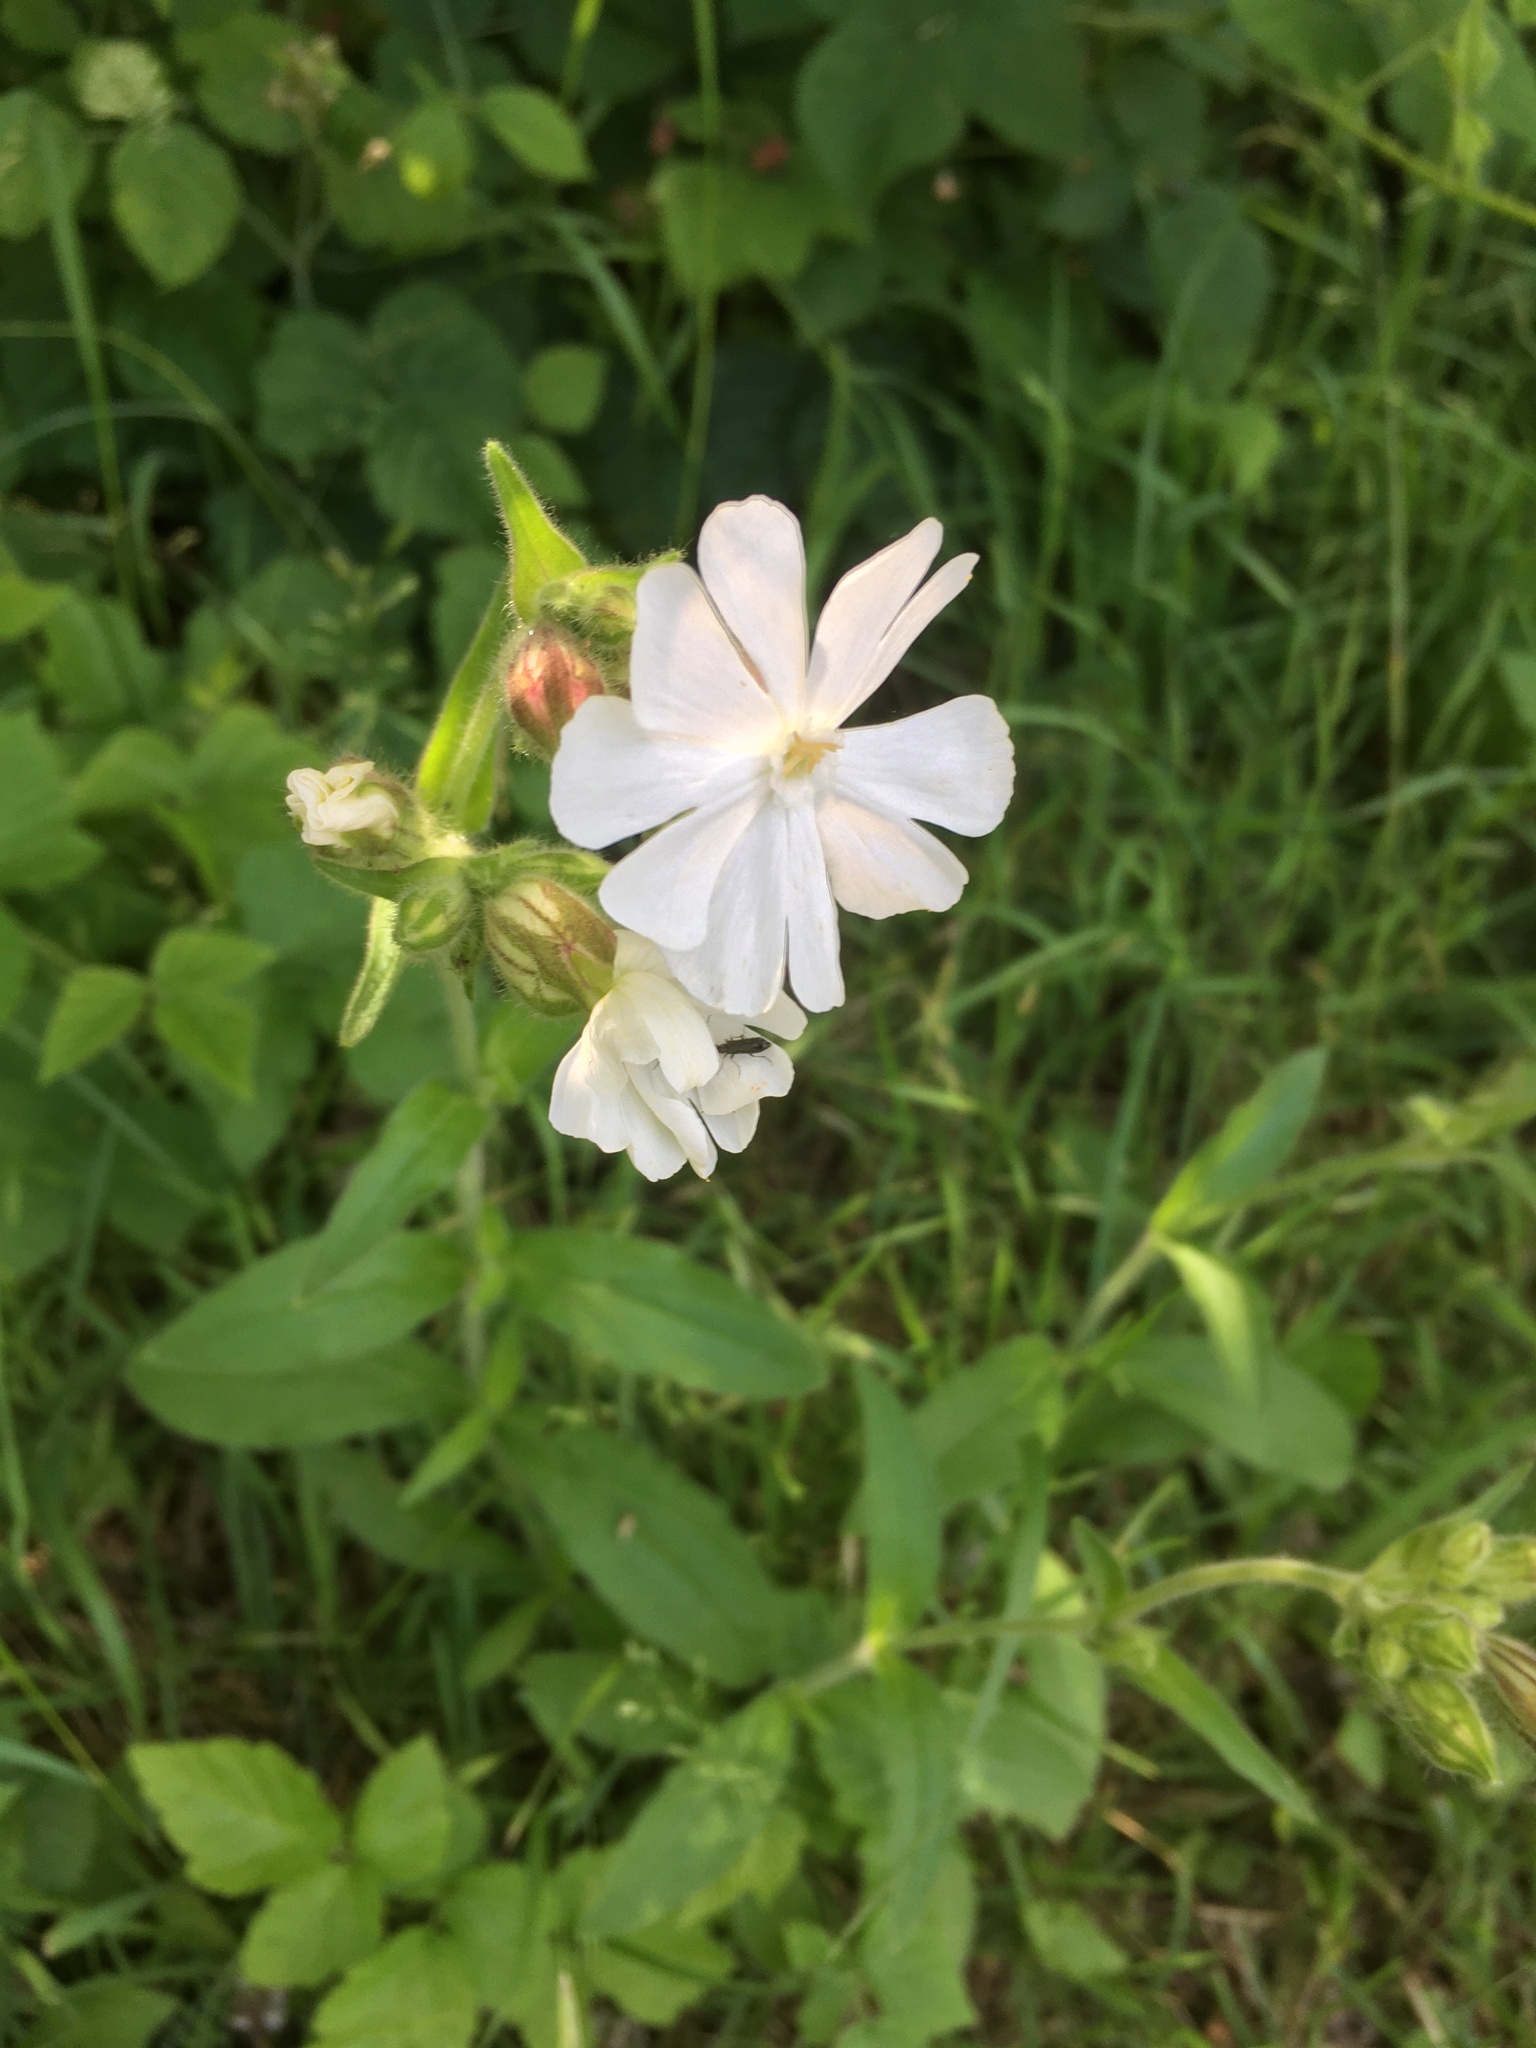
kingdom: Plantae
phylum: Tracheophyta
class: Magnoliopsida
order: Caryophyllales
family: Caryophyllaceae
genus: Silene
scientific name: Silene latifolia
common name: White campion
